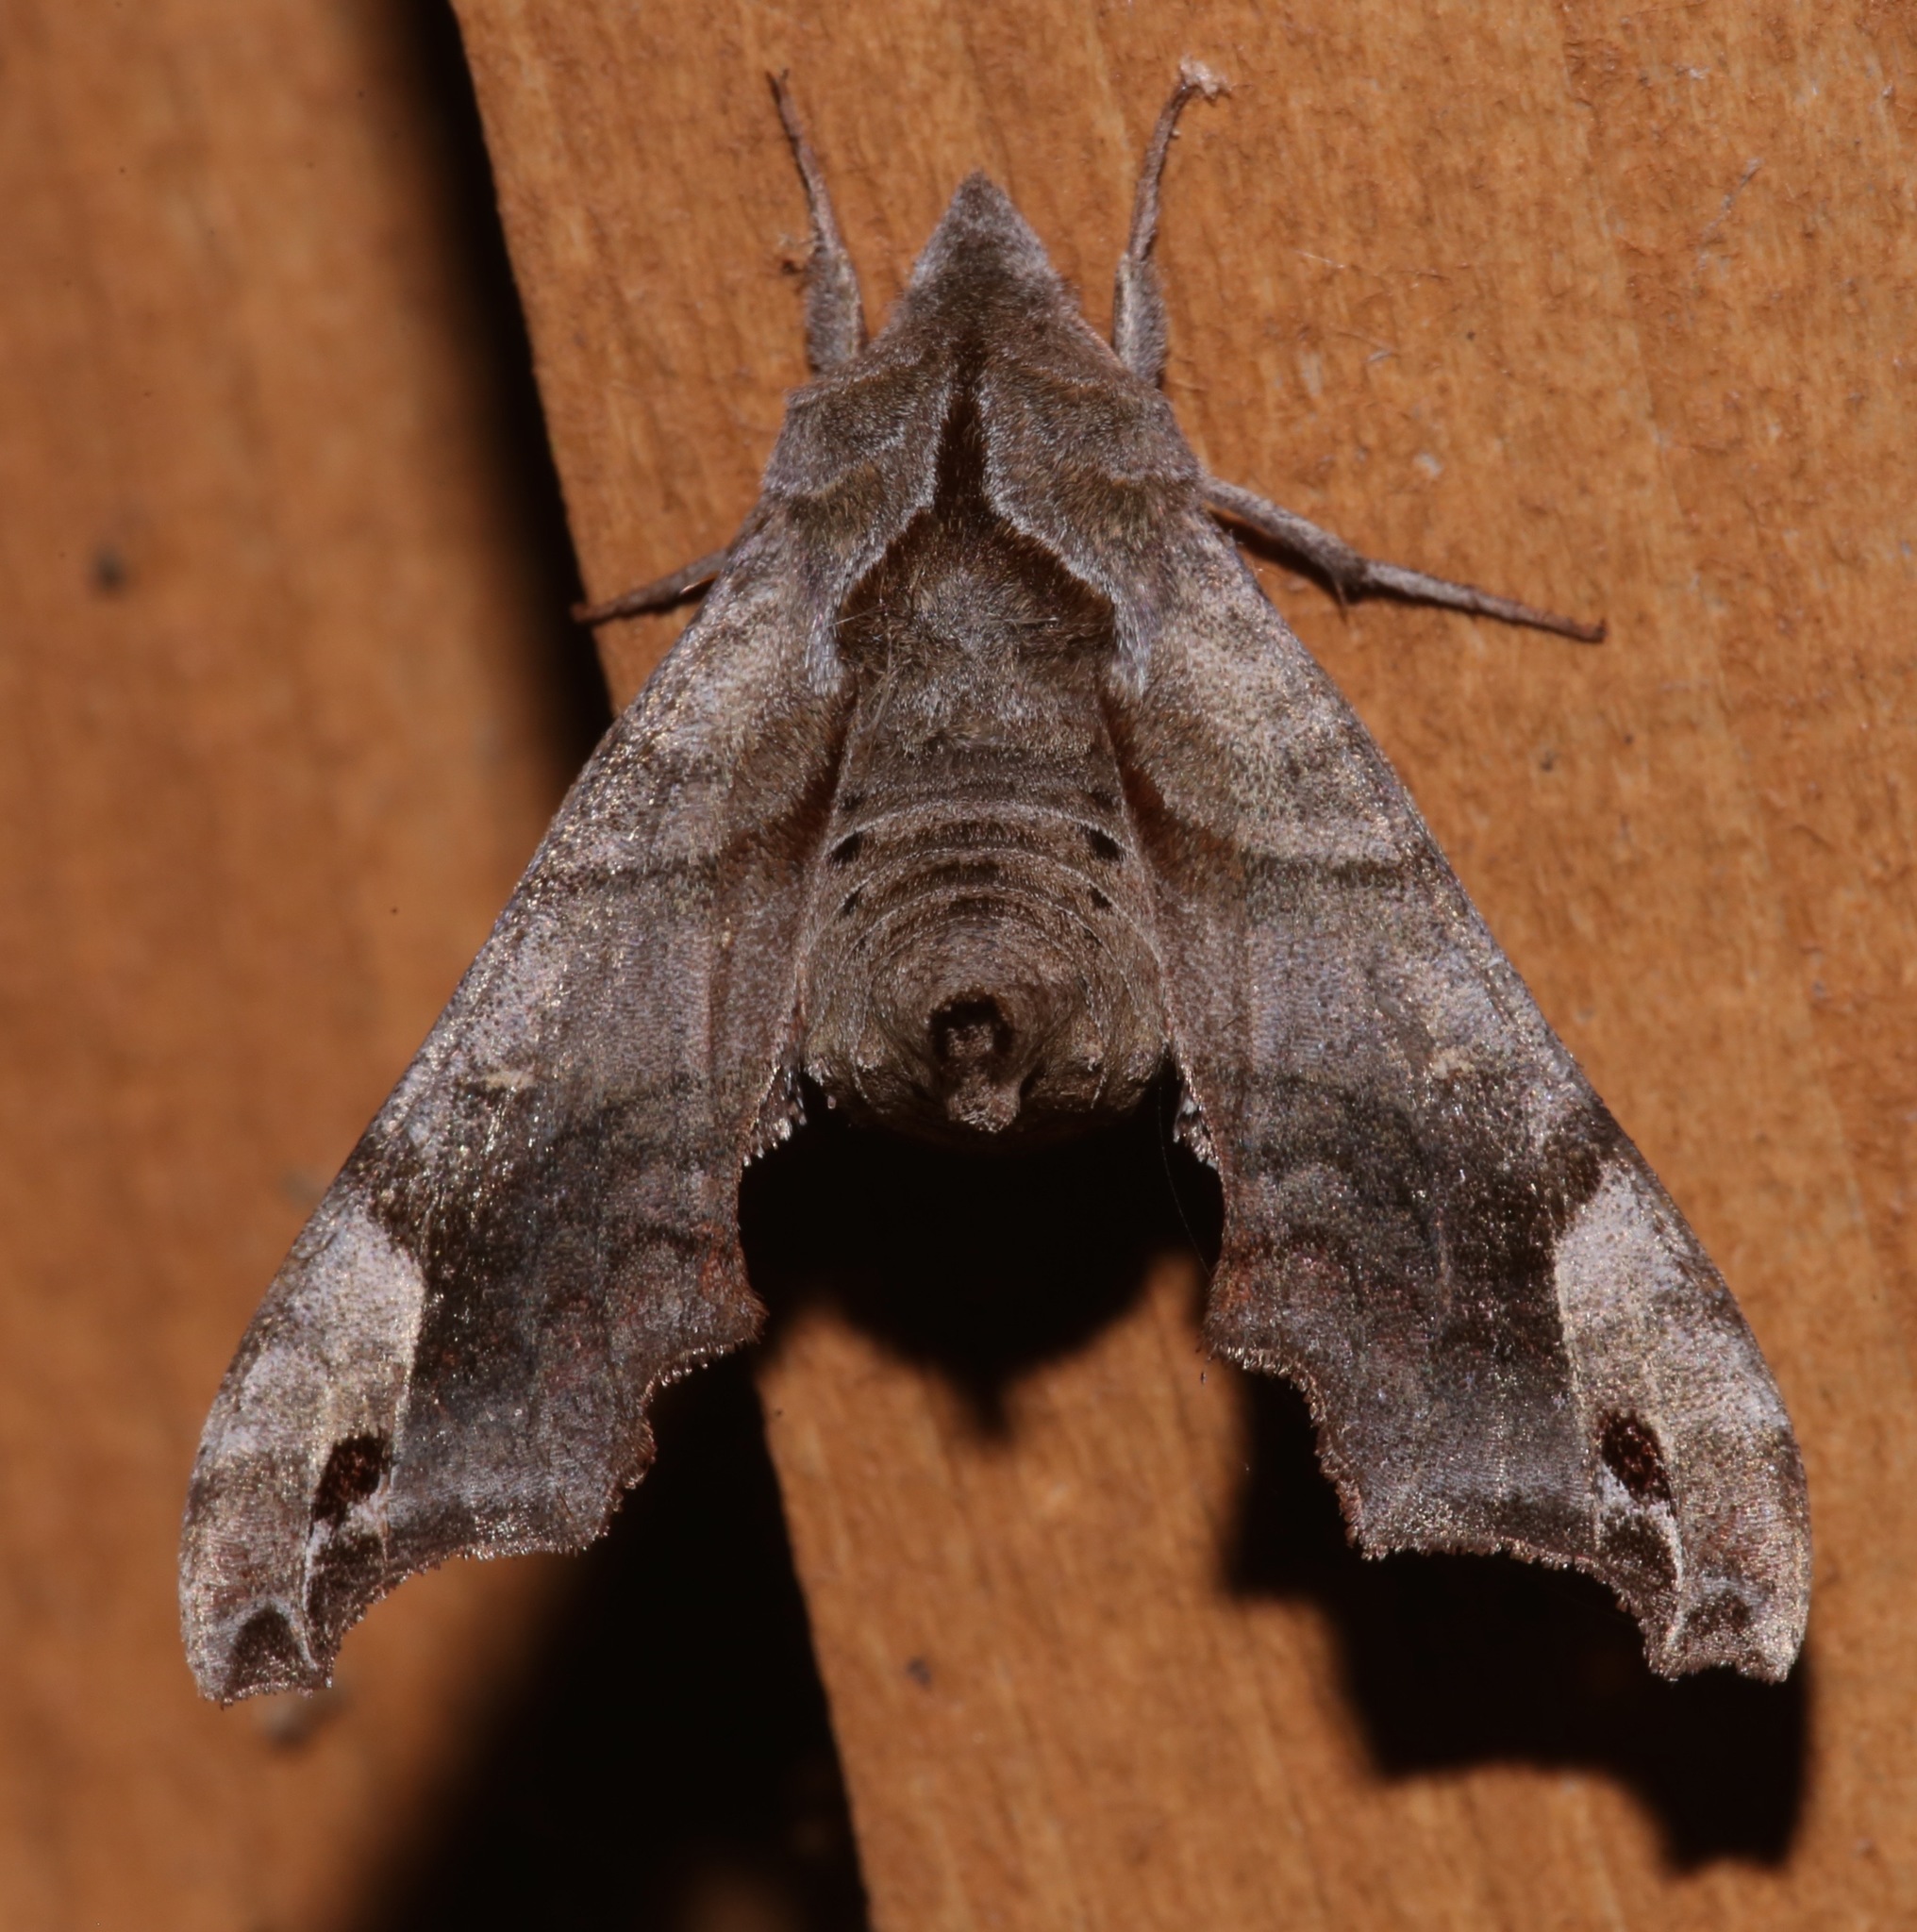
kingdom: Animalia
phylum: Arthropoda
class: Insecta
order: Lepidoptera
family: Sphingidae
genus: Deidamia
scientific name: Deidamia inscriptum
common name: Lettered sphinx
